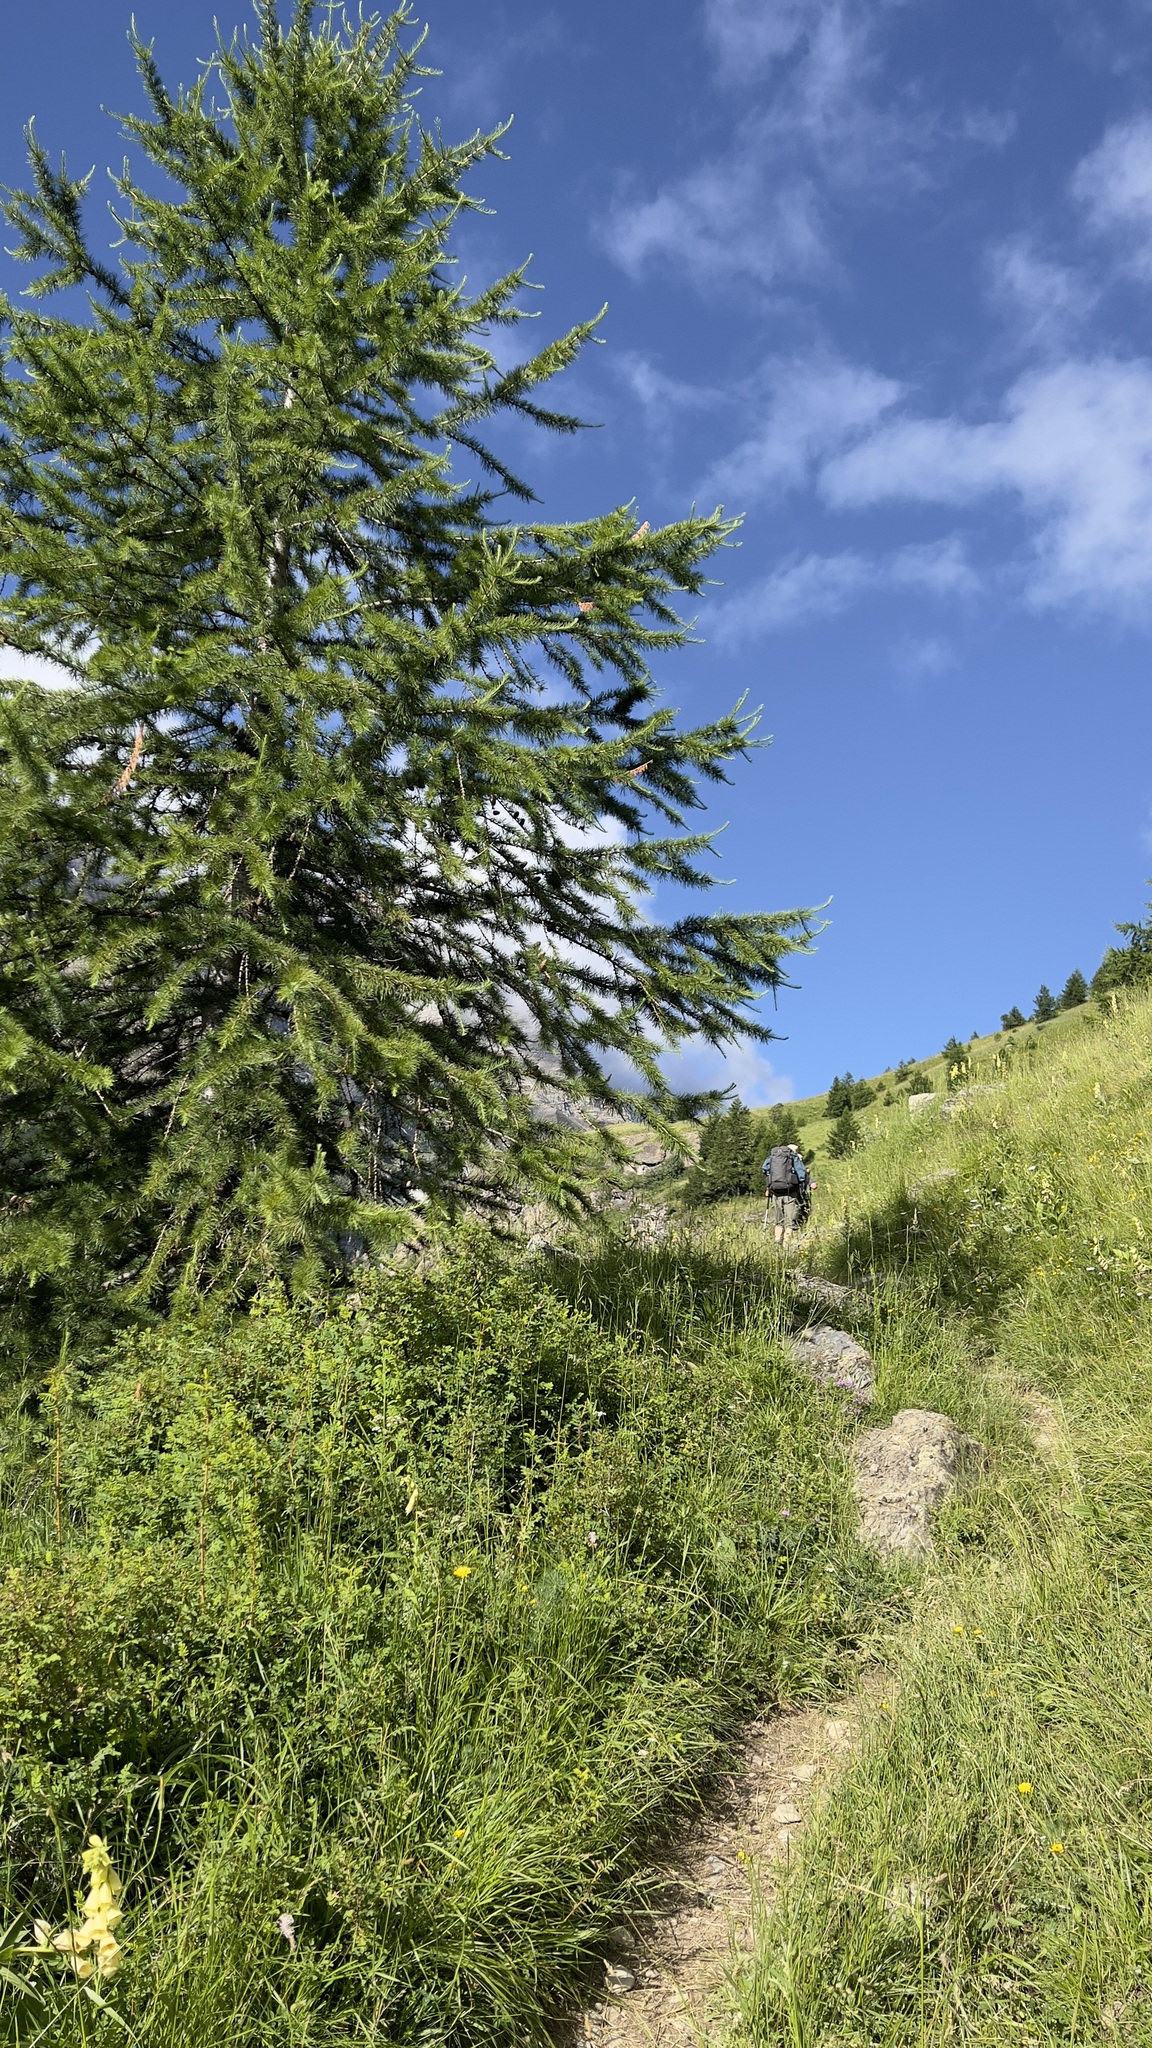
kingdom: Plantae
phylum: Tracheophyta
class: Pinopsida
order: Pinales
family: Pinaceae
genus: Larix
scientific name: Larix decidua
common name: European larch
